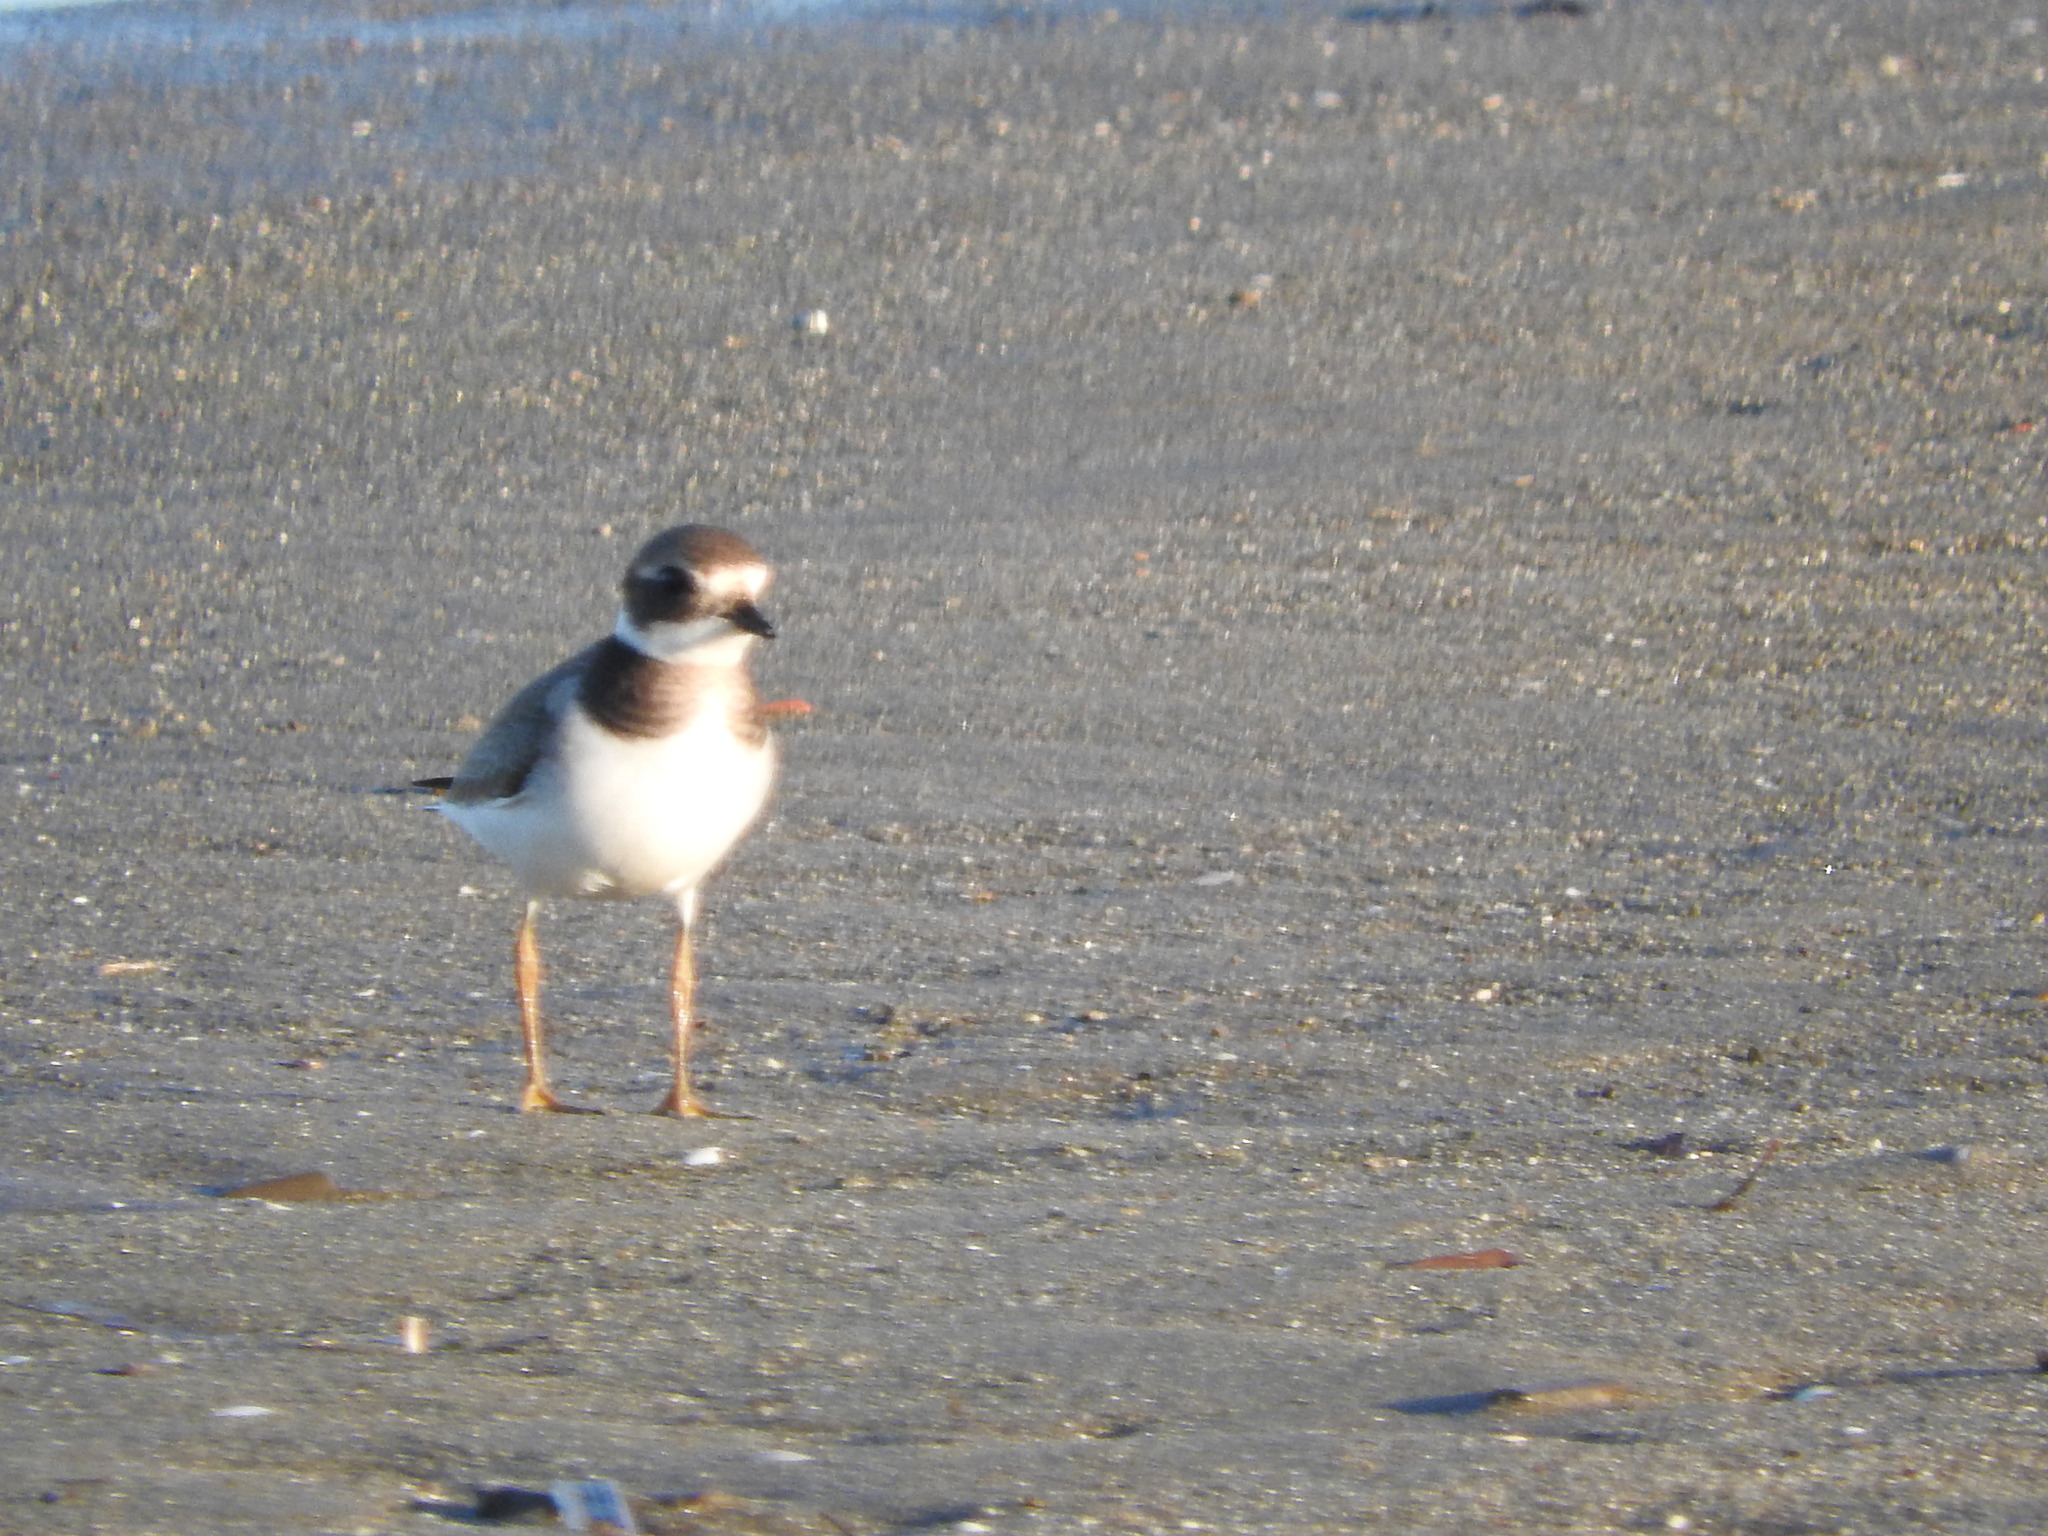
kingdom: Animalia
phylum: Chordata
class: Aves
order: Charadriiformes
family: Charadriidae
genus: Charadrius
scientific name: Charadrius hiaticula
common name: Common ringed plover
